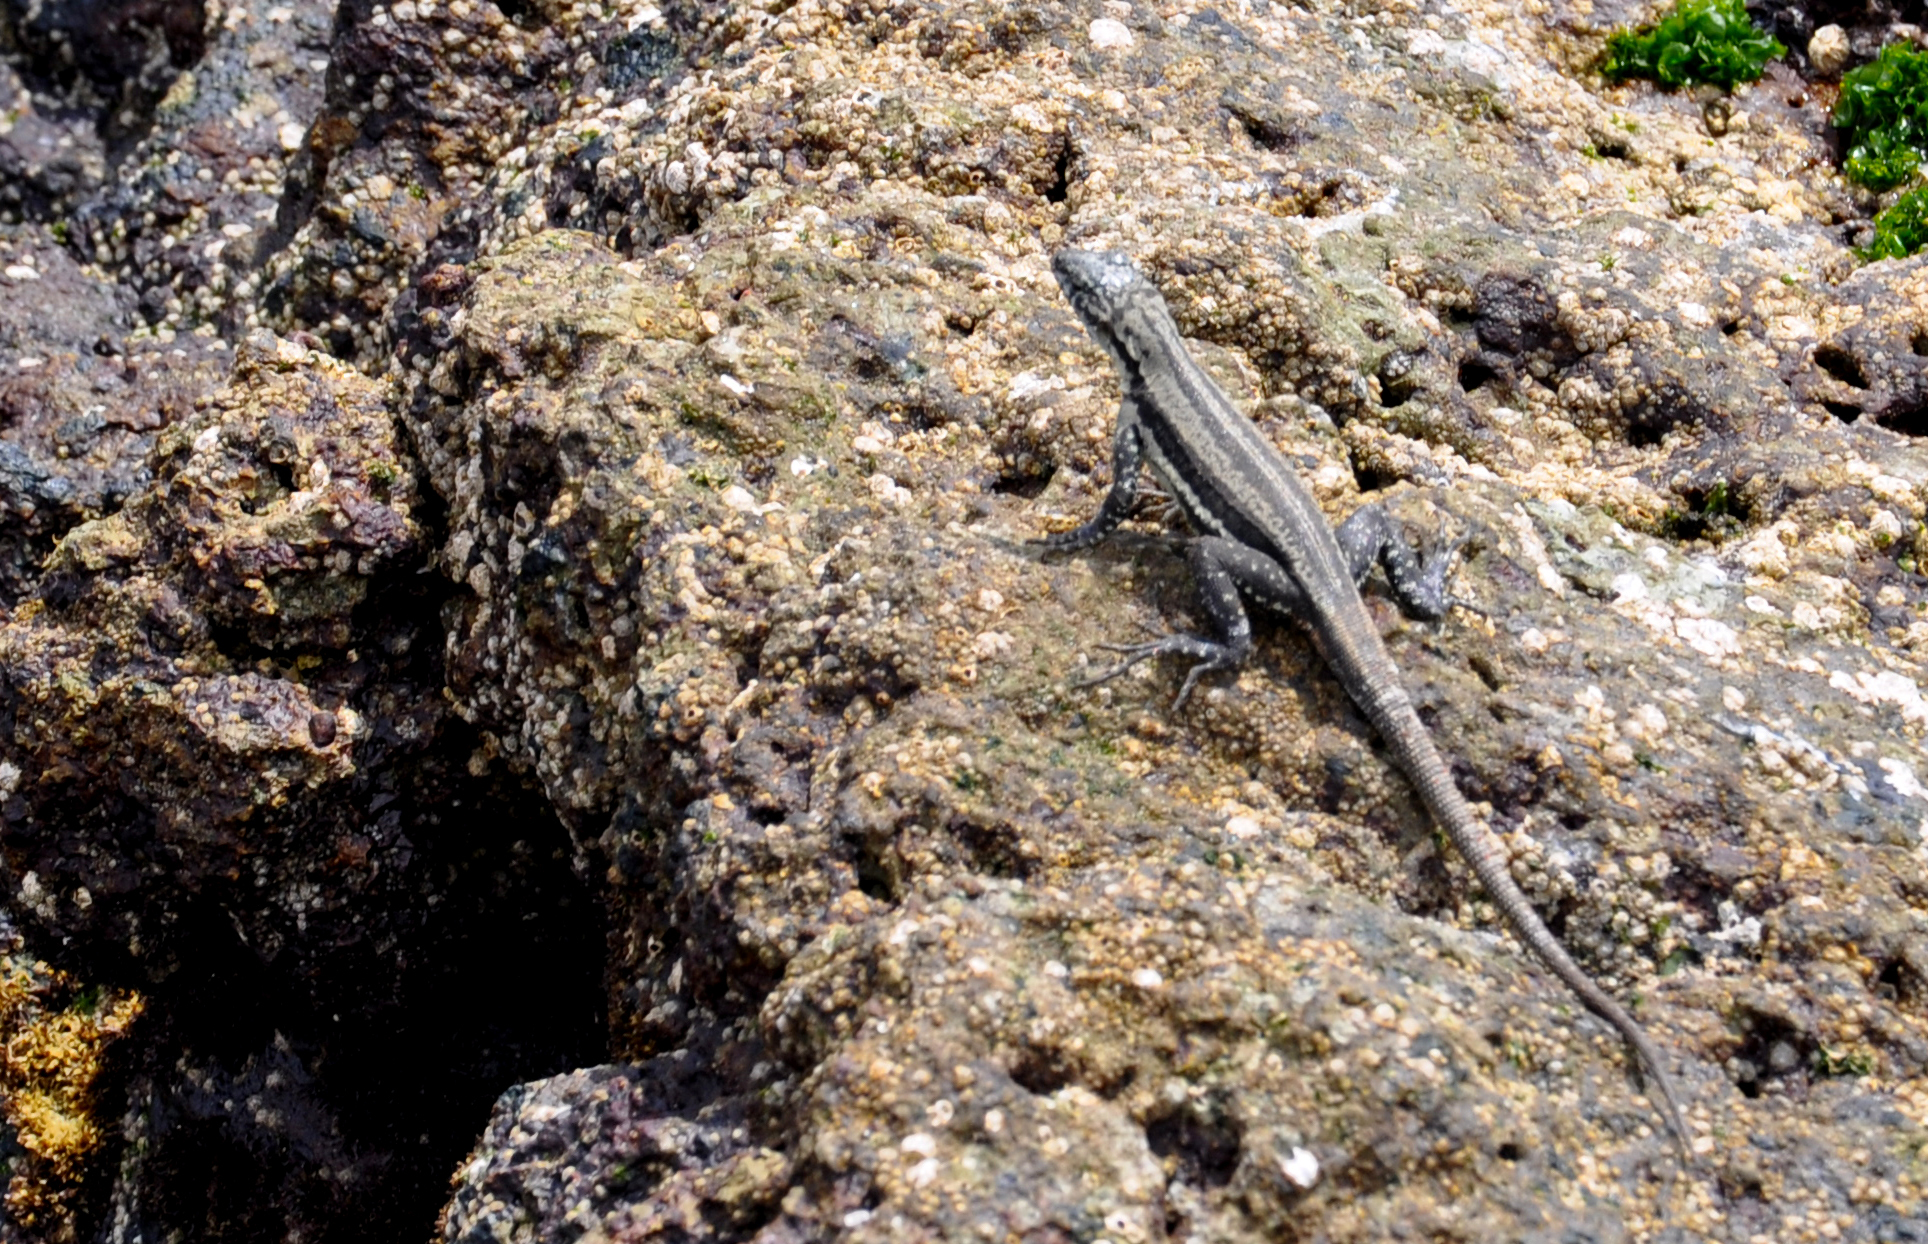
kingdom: Animalia
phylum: Chordata
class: Squamata
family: Tropiduridae
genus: Microlophus
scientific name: Microlophus quadrivittatus
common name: Four-banded pacific iguana
